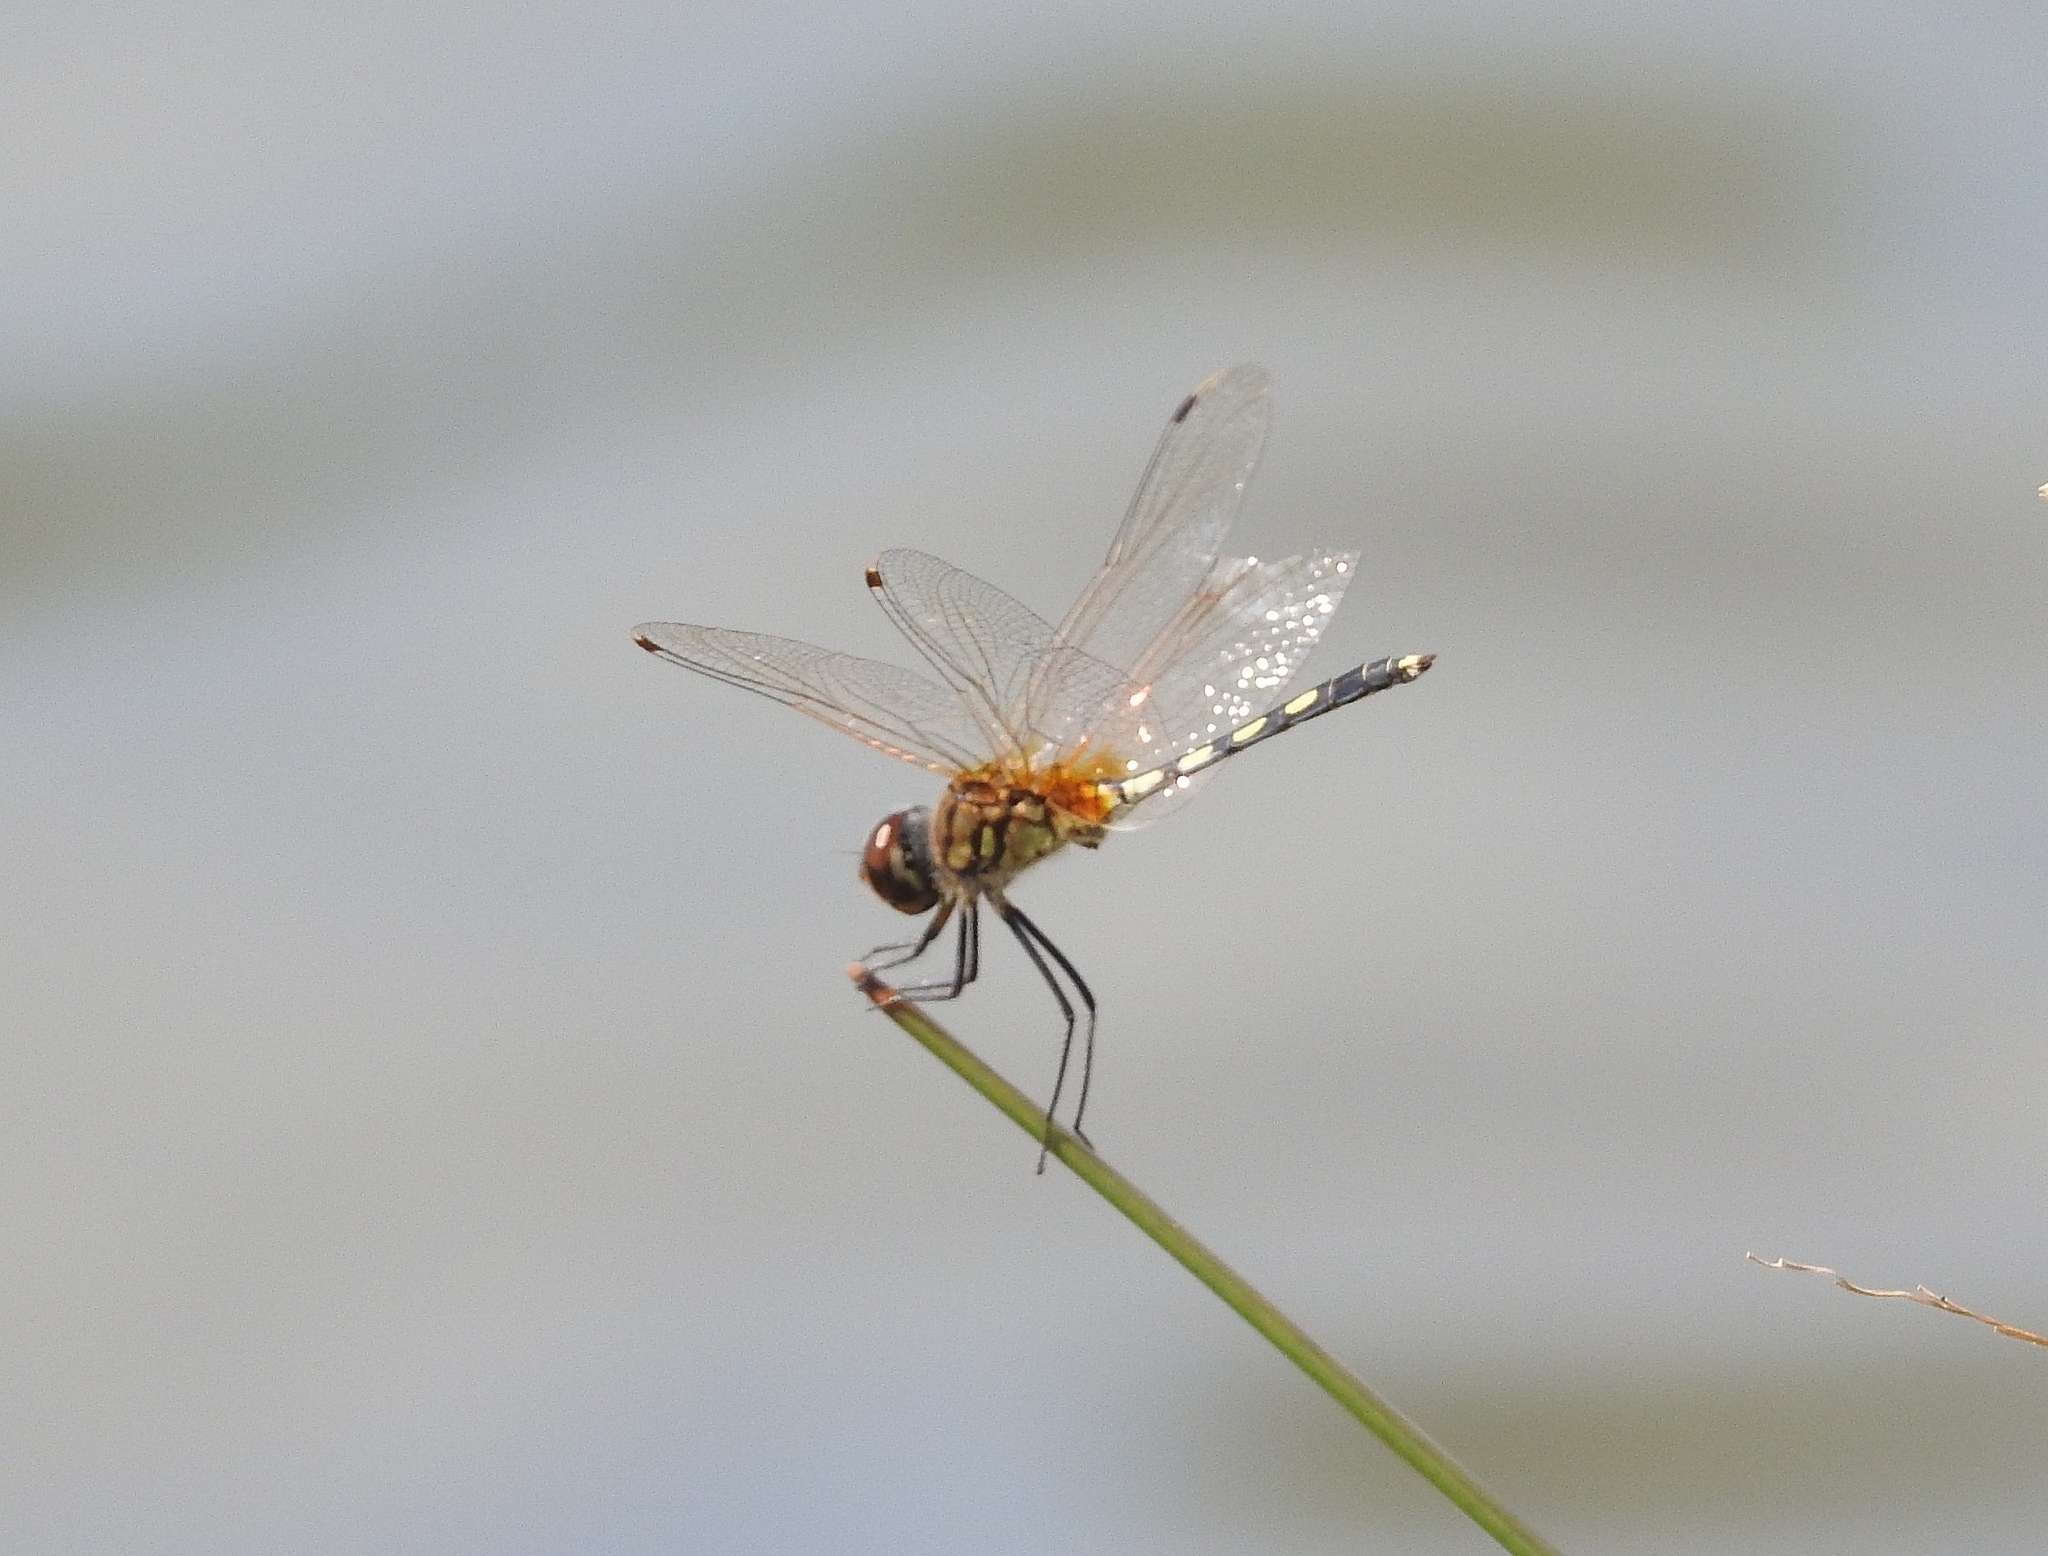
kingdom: Animalia
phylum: Arthropoda
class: Insecta
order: Odonata
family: Libellulidae
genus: Trithemis
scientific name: Trithemis pallidinervis
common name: Dancing dropwing
